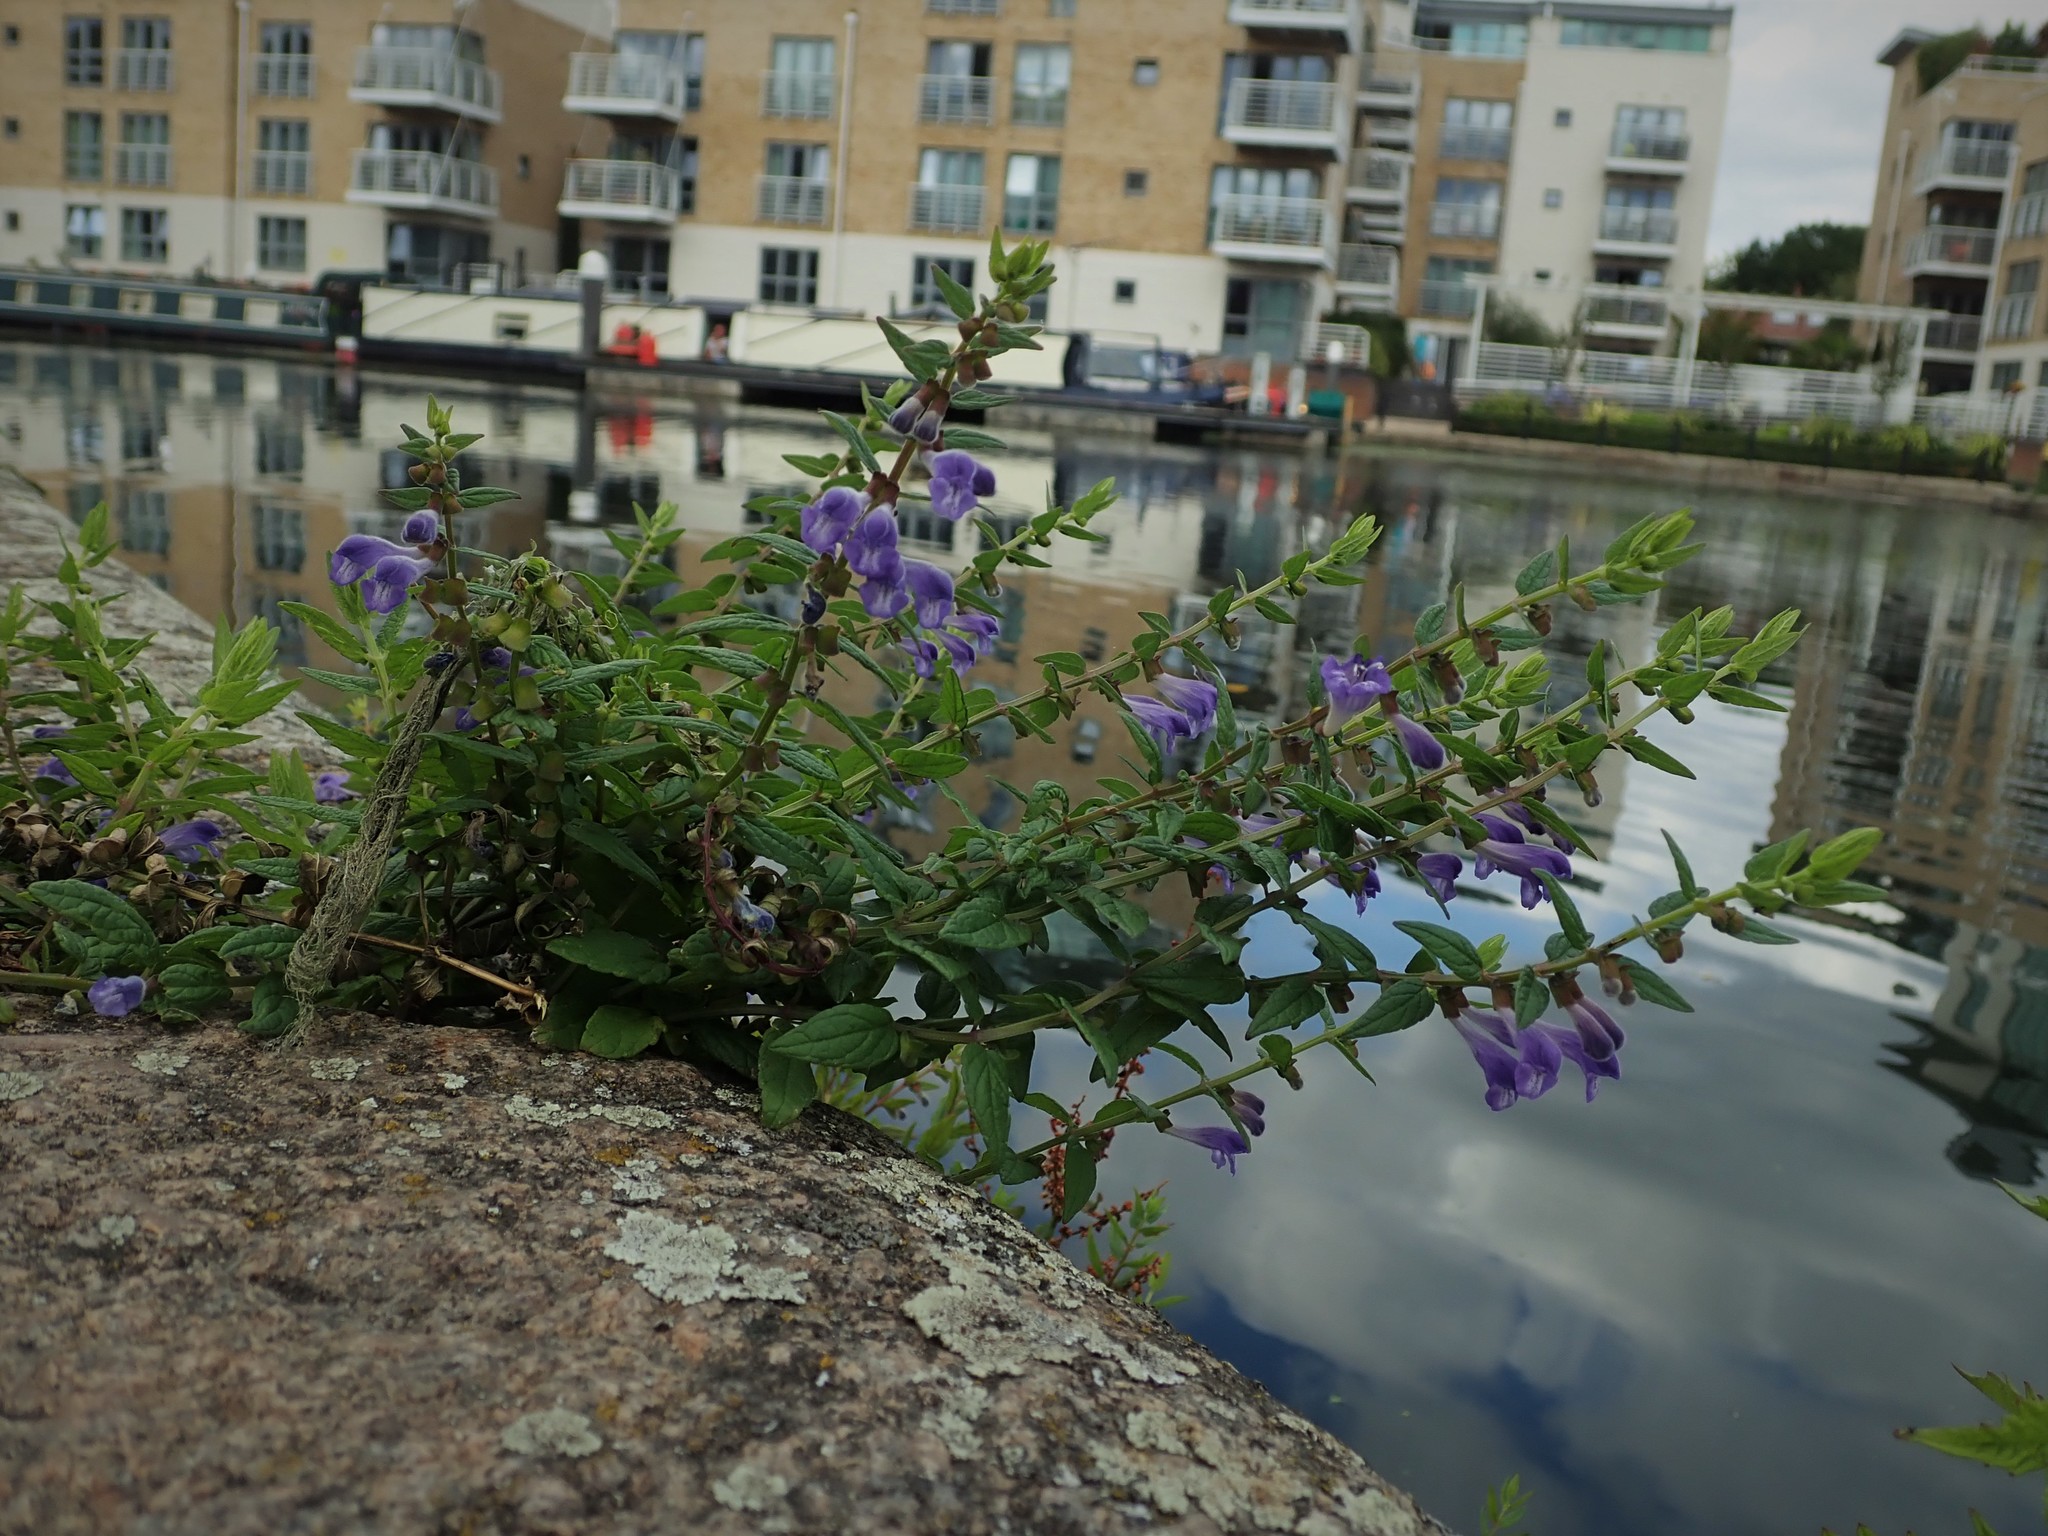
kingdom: Plantae
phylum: Tracheophyta
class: Magnoliopsida
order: Lamiales
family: Lamiaceae
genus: Scutellaria
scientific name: Scutellaria galericulata
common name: Skullcap
